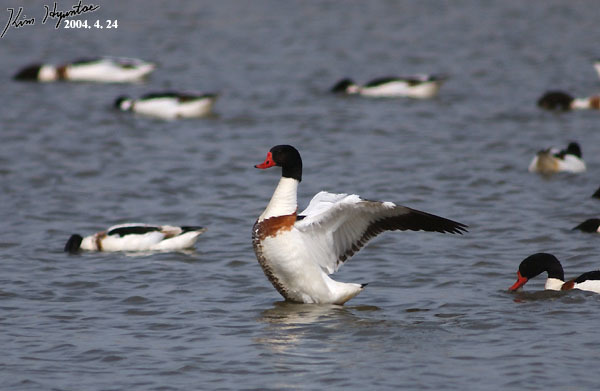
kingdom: Animalia
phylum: Chordata
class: Aves
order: Anseriformes
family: Anatidae
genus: Tadorna
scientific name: Tadorna tadorna
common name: Common shelduck
